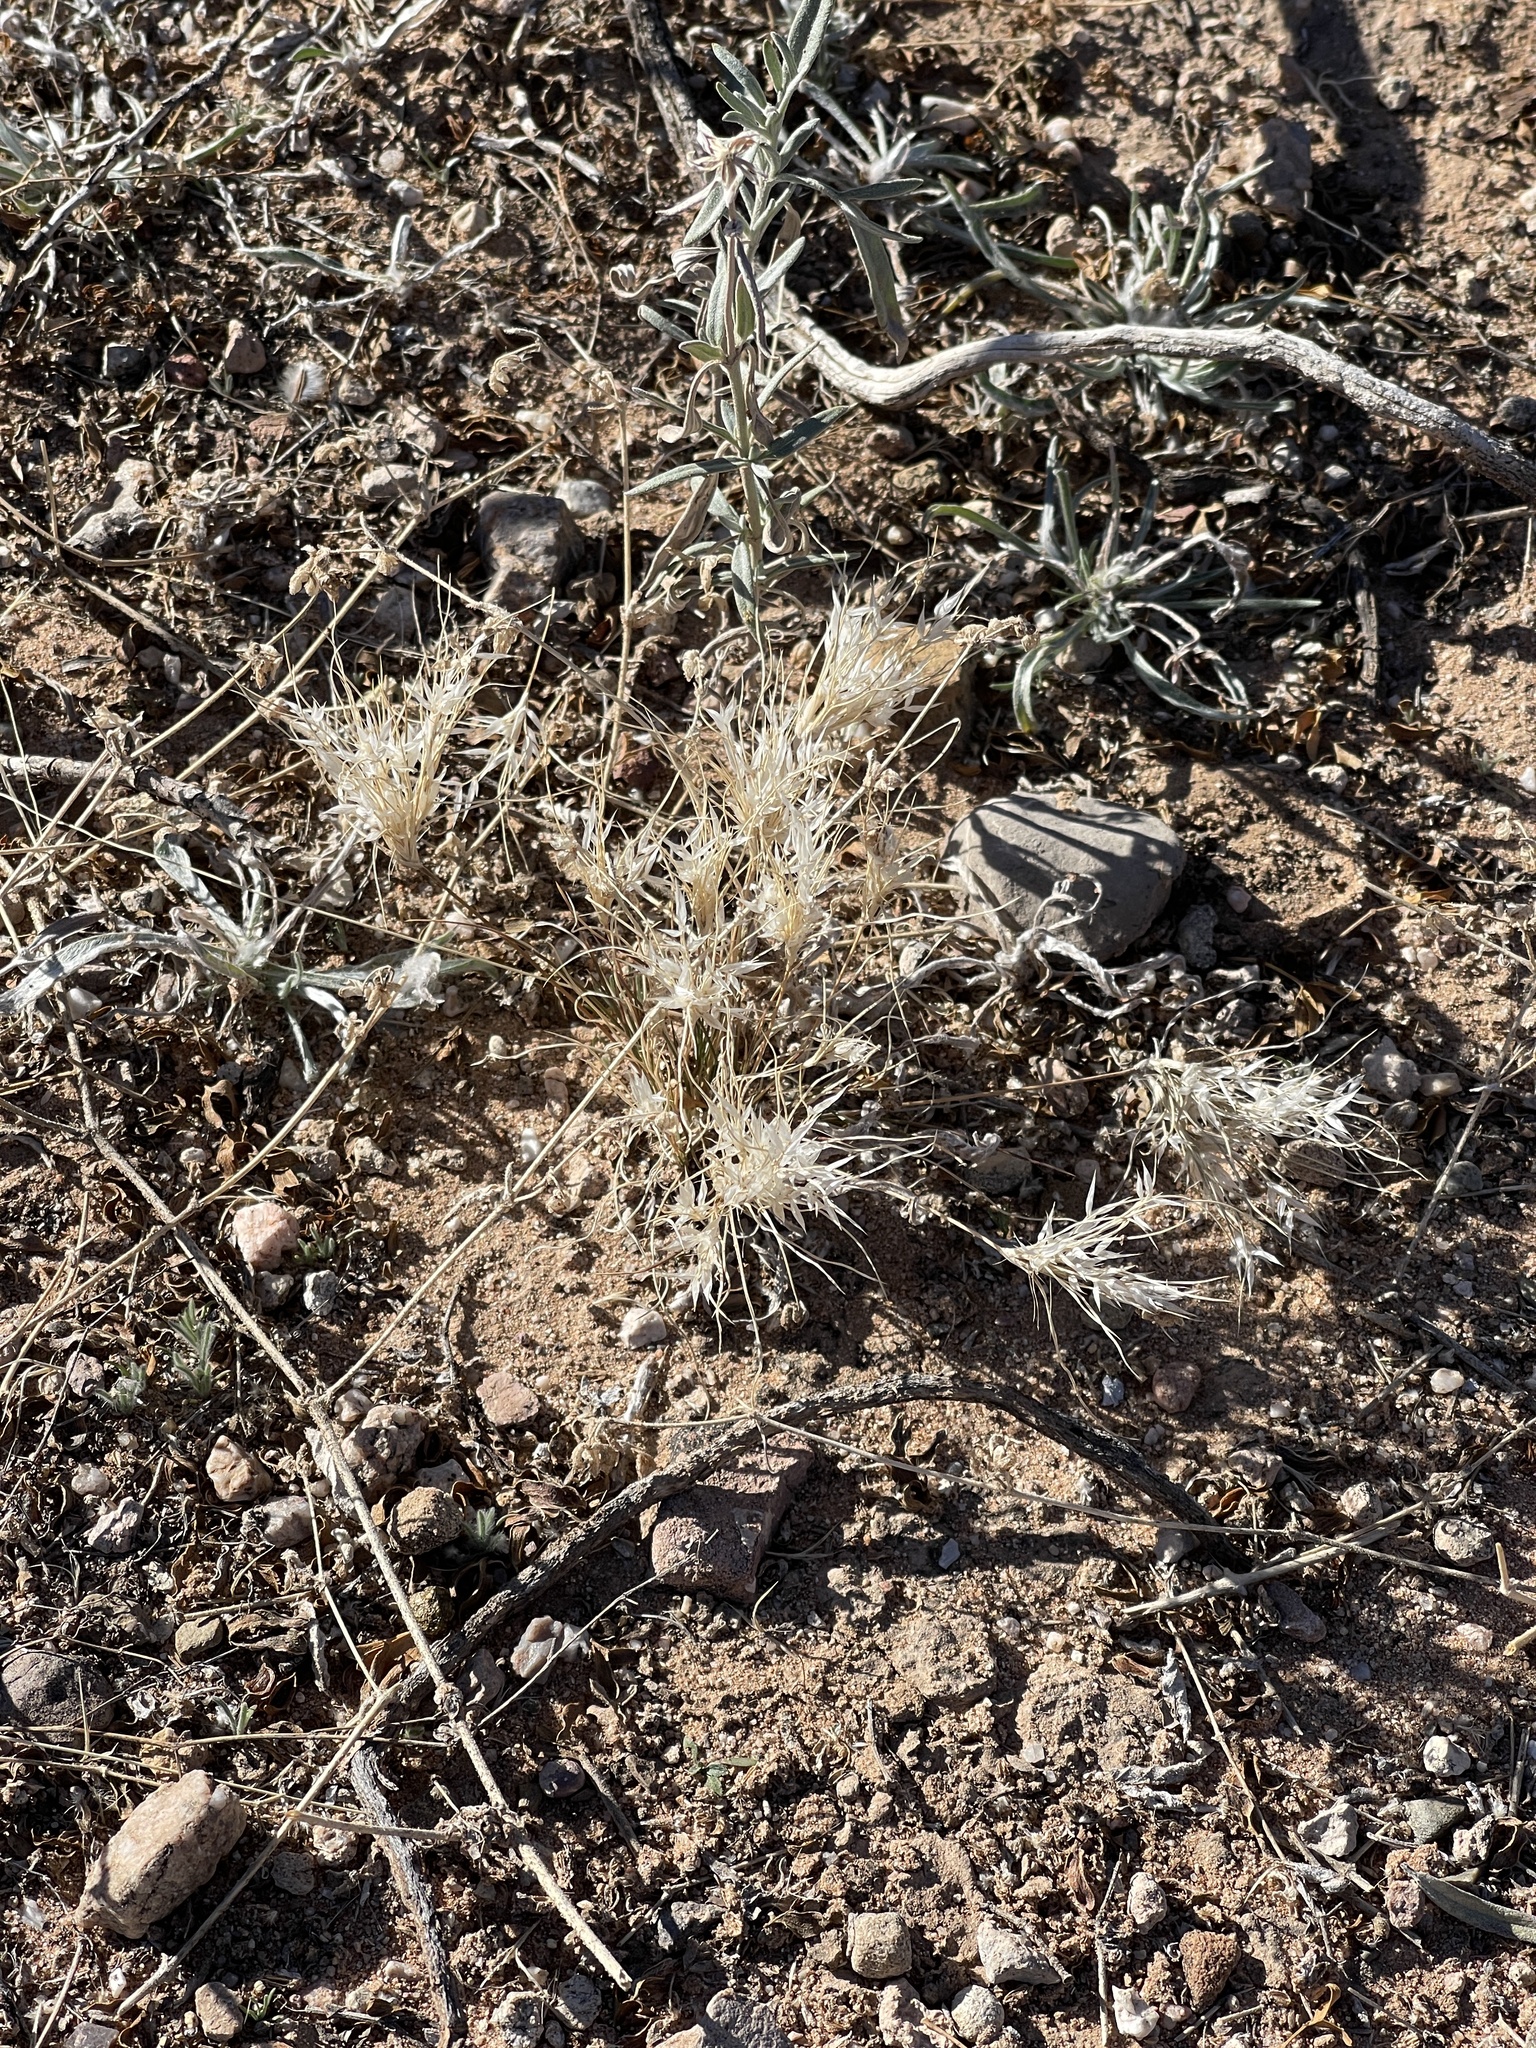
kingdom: Plantae
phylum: Tracheophyta
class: Liliopsida
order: Poales
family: Poaceae
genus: Dasyochloa
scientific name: Dasyochloa pulchella
